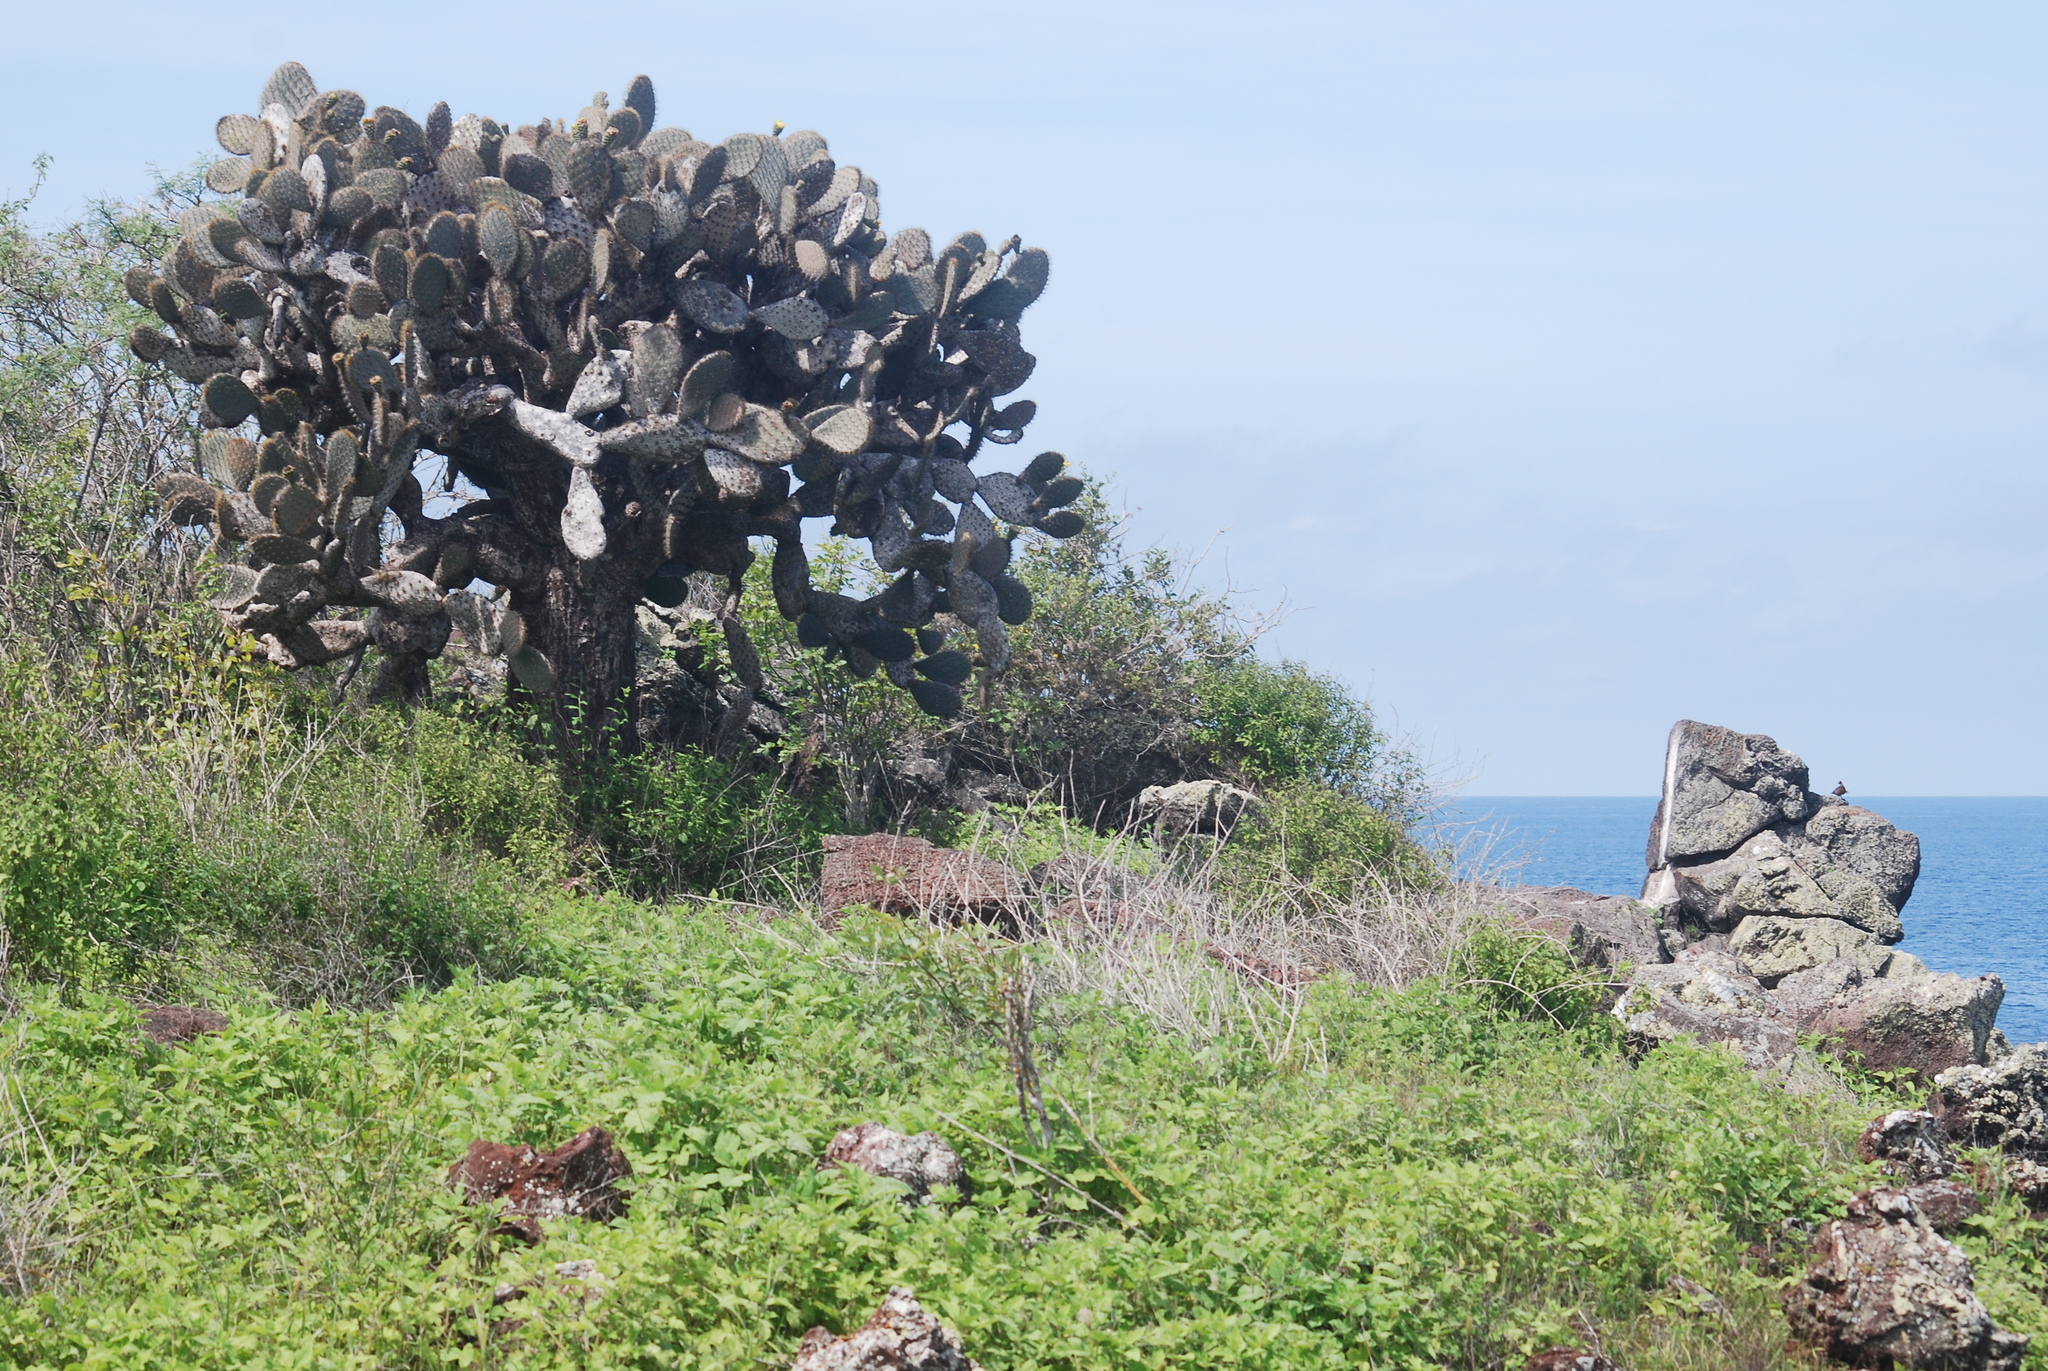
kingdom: Plantae
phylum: Tracheophyta
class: Magnoliopsida
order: Caryophyllales
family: Cactaceae
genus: Opuntia
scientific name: Opuntia galapageia
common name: Galápagos prickly pear
